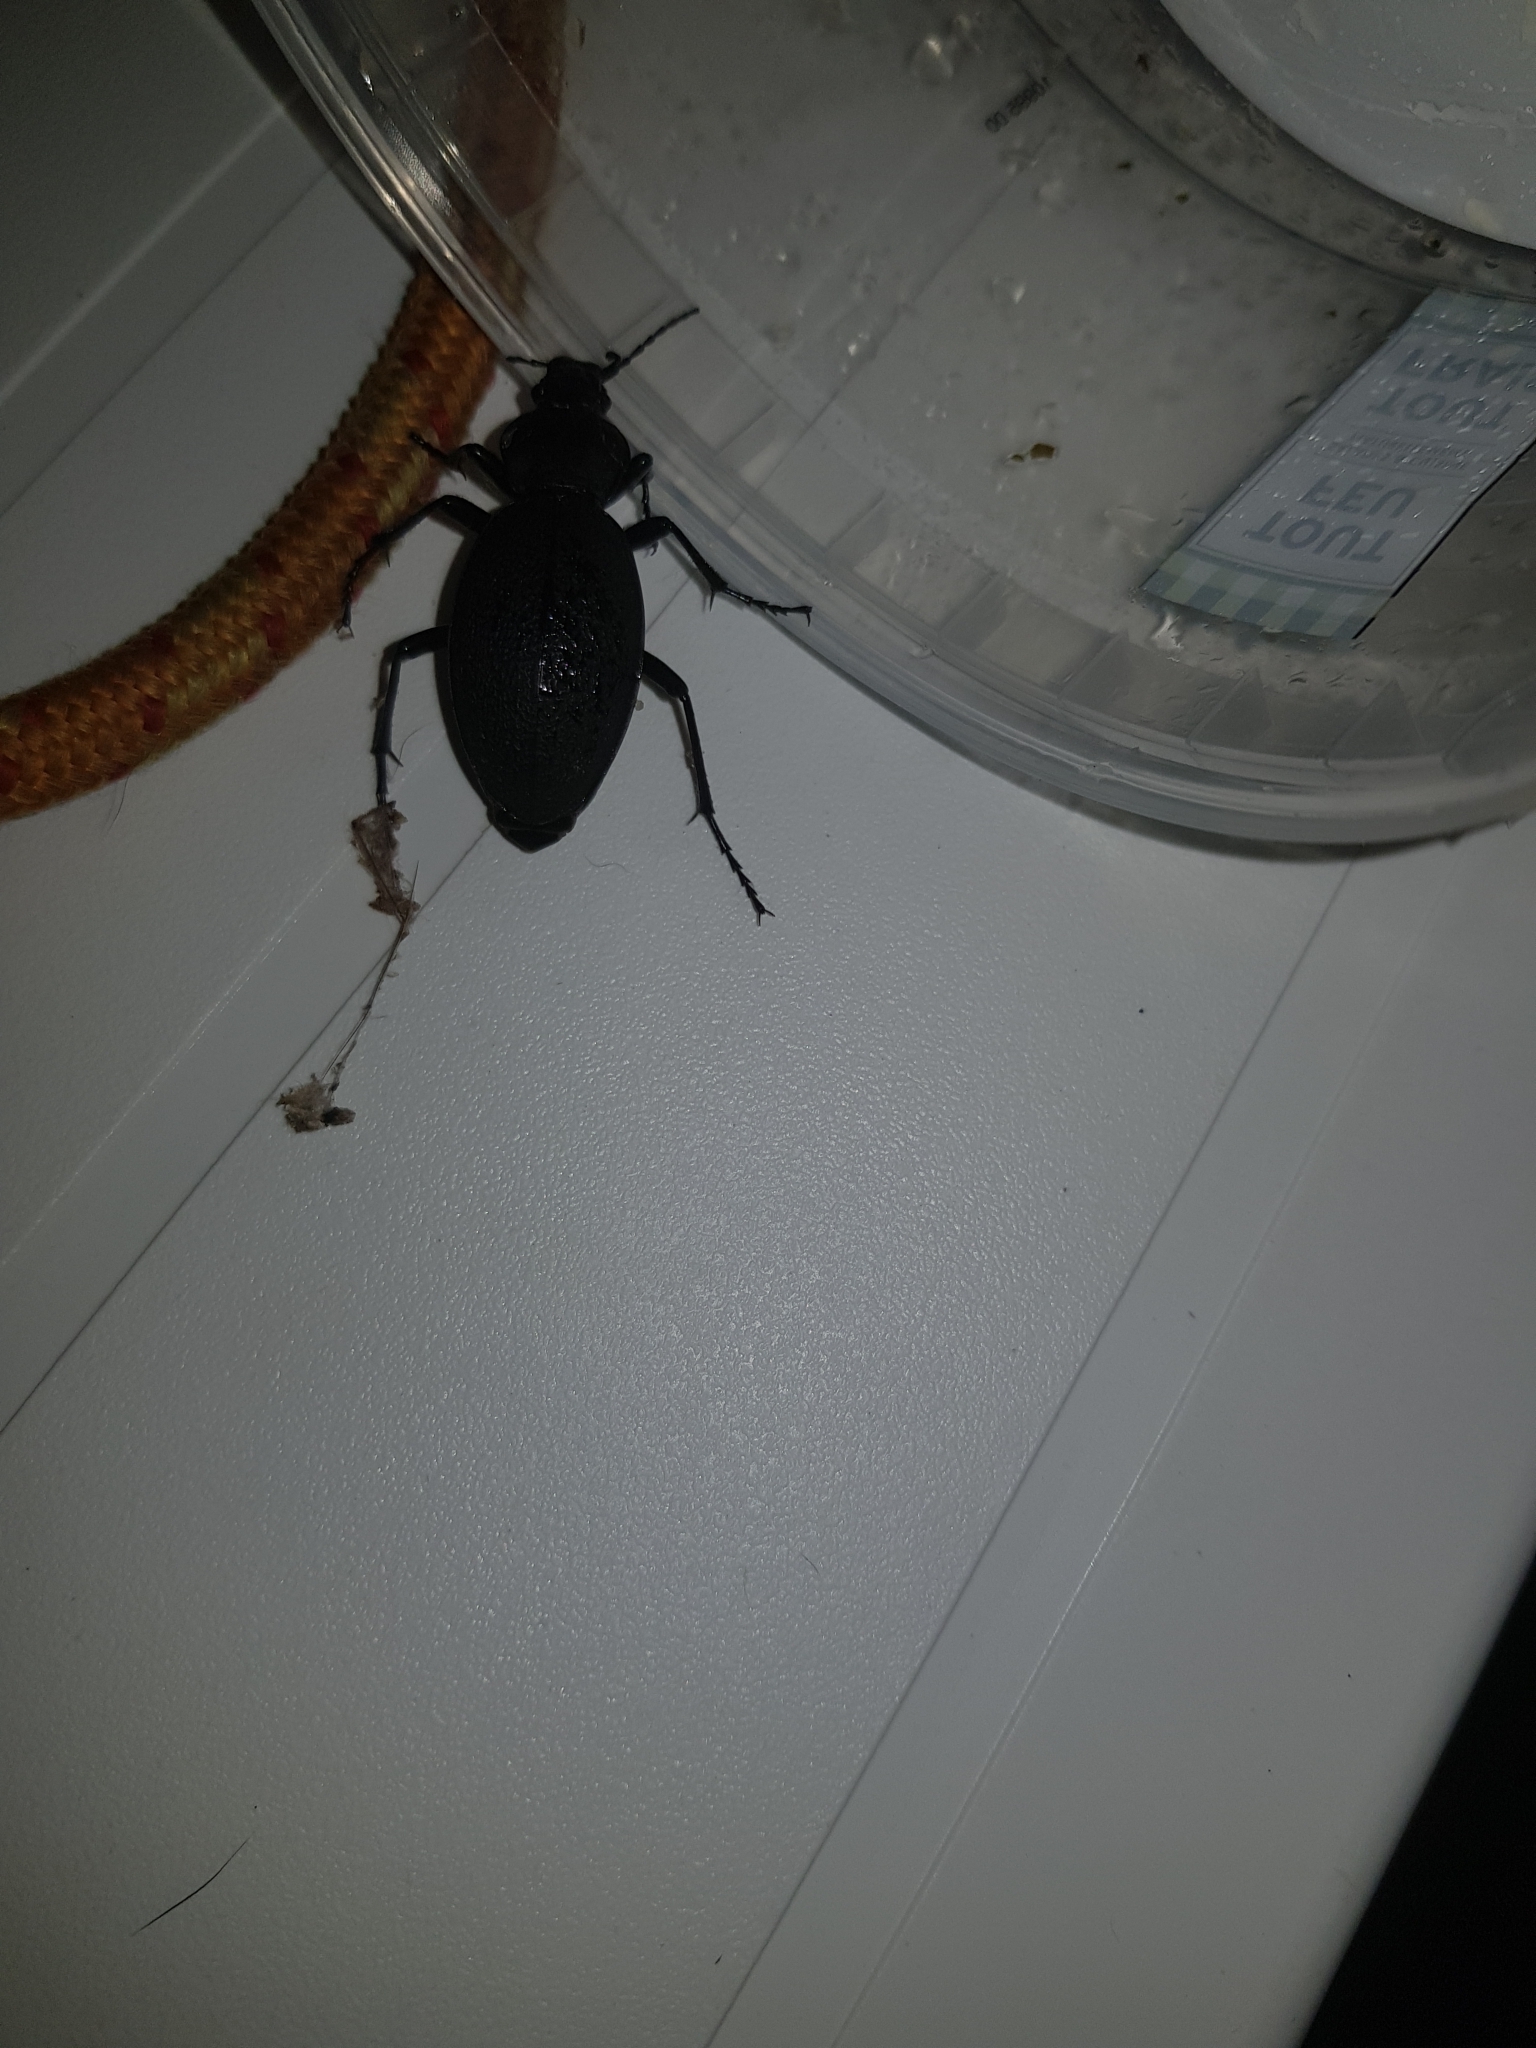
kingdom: Animalia
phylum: Arthropoda
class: Insecta
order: Coleoptera
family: Carabidae
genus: Carabus
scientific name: Carabus coriaceus
